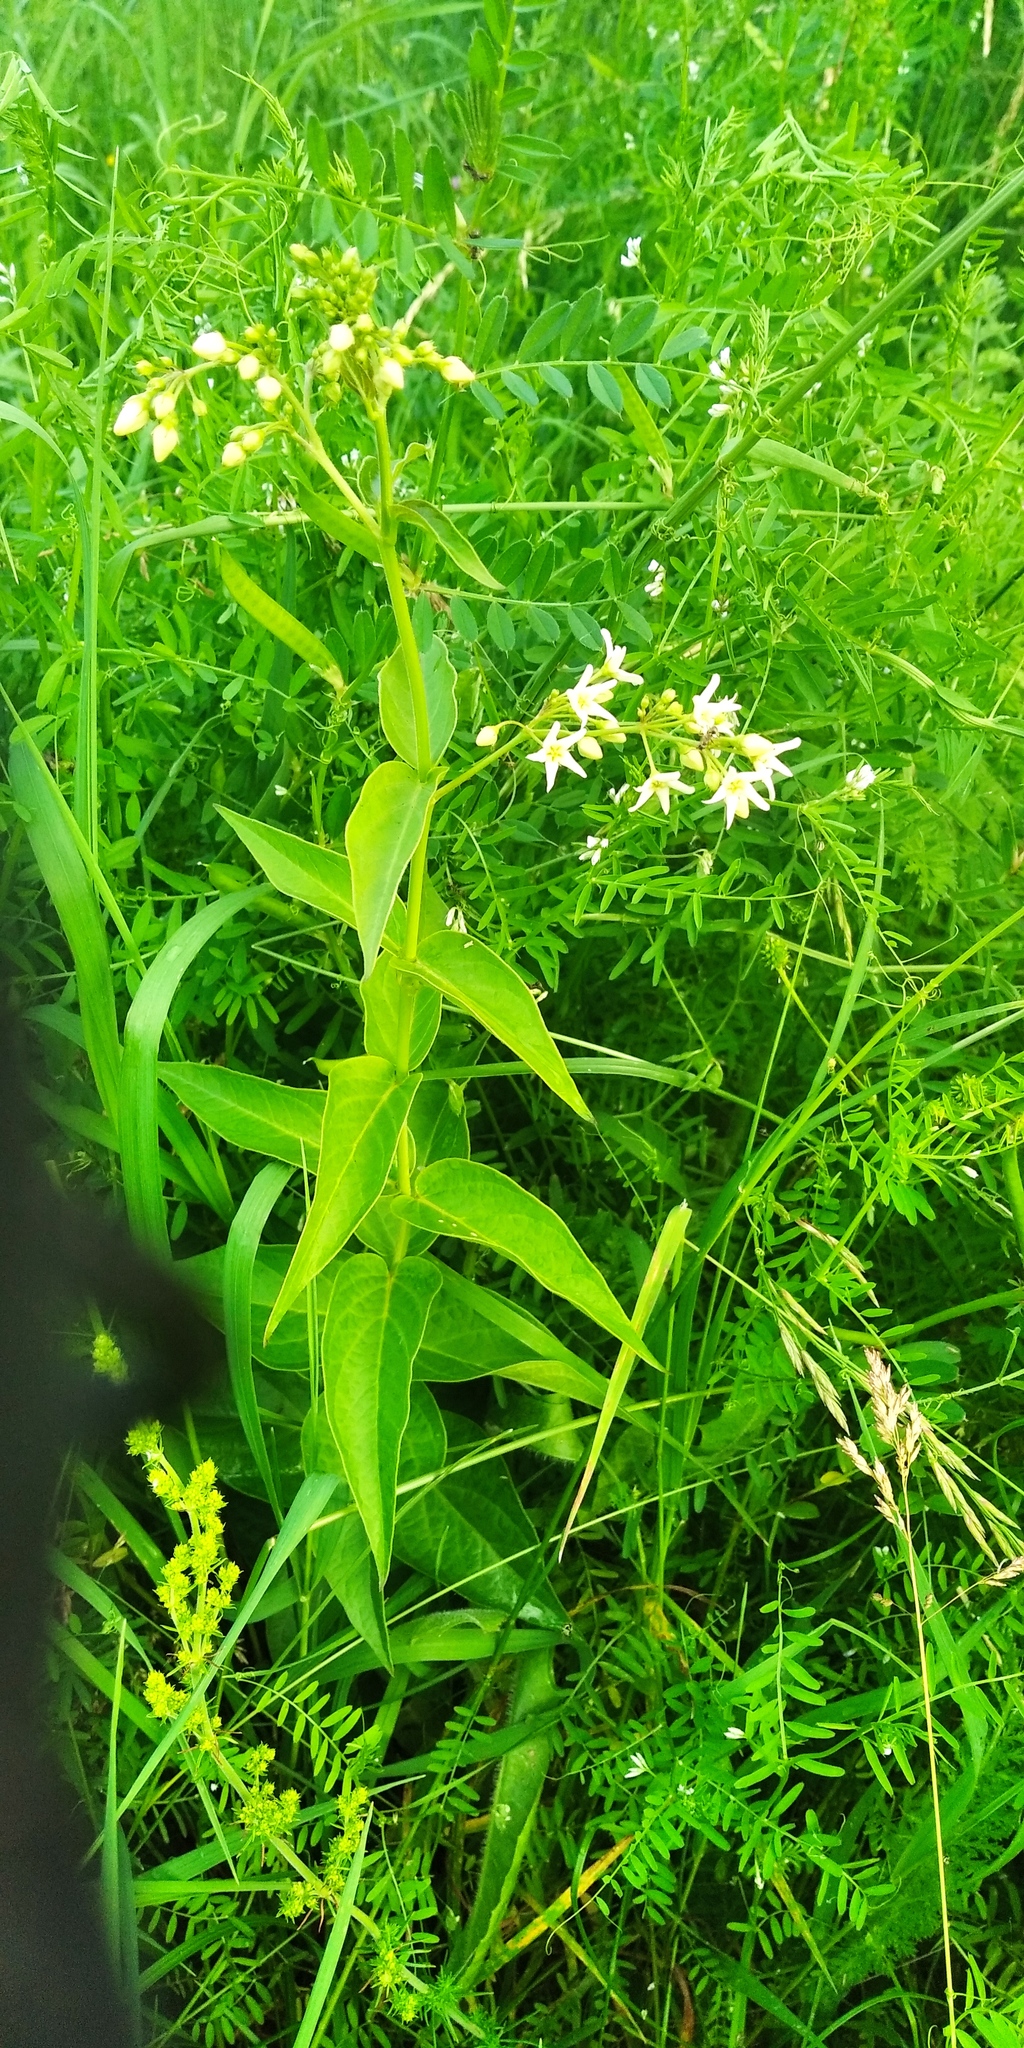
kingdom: Plantae
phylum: Tracheophyta
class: Magnoliopsida
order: Gentianales
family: Apocynaceae
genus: Vincetoxicum
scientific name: Vincetoxicum hirundinaria
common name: White swallowwort
